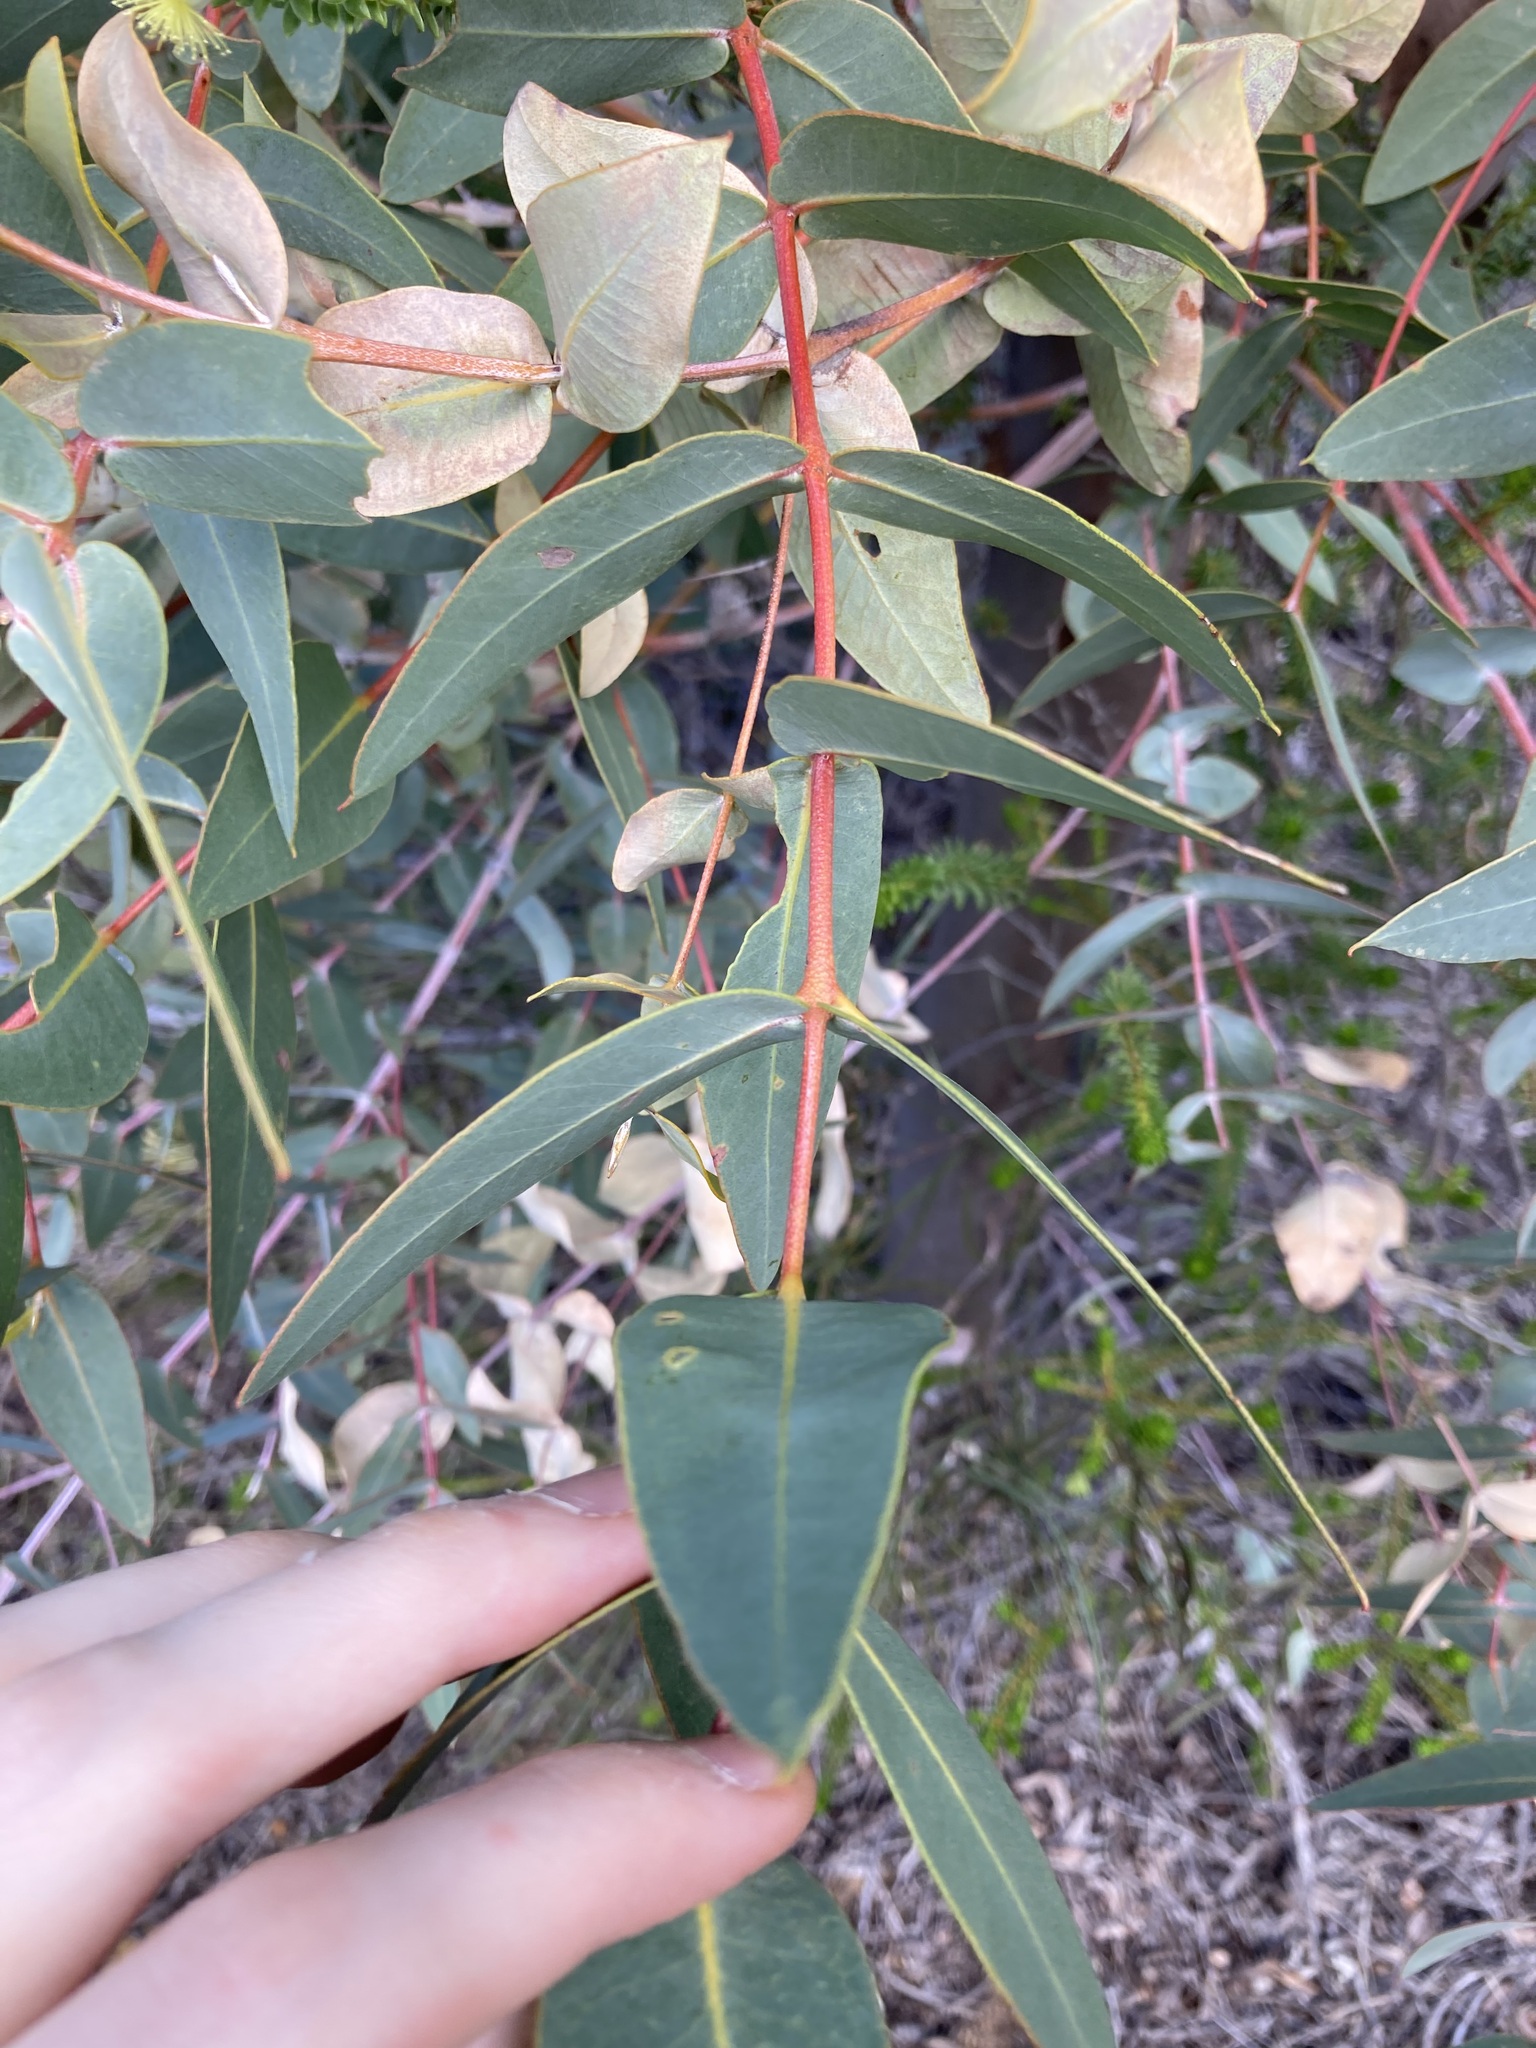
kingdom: Plantae
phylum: Tracheophyta
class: Magnoliopsida
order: Myrtales
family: Myrtaceae
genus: Eucalyptus
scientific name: Eucalyptus eudesmioides
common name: Desert gum
